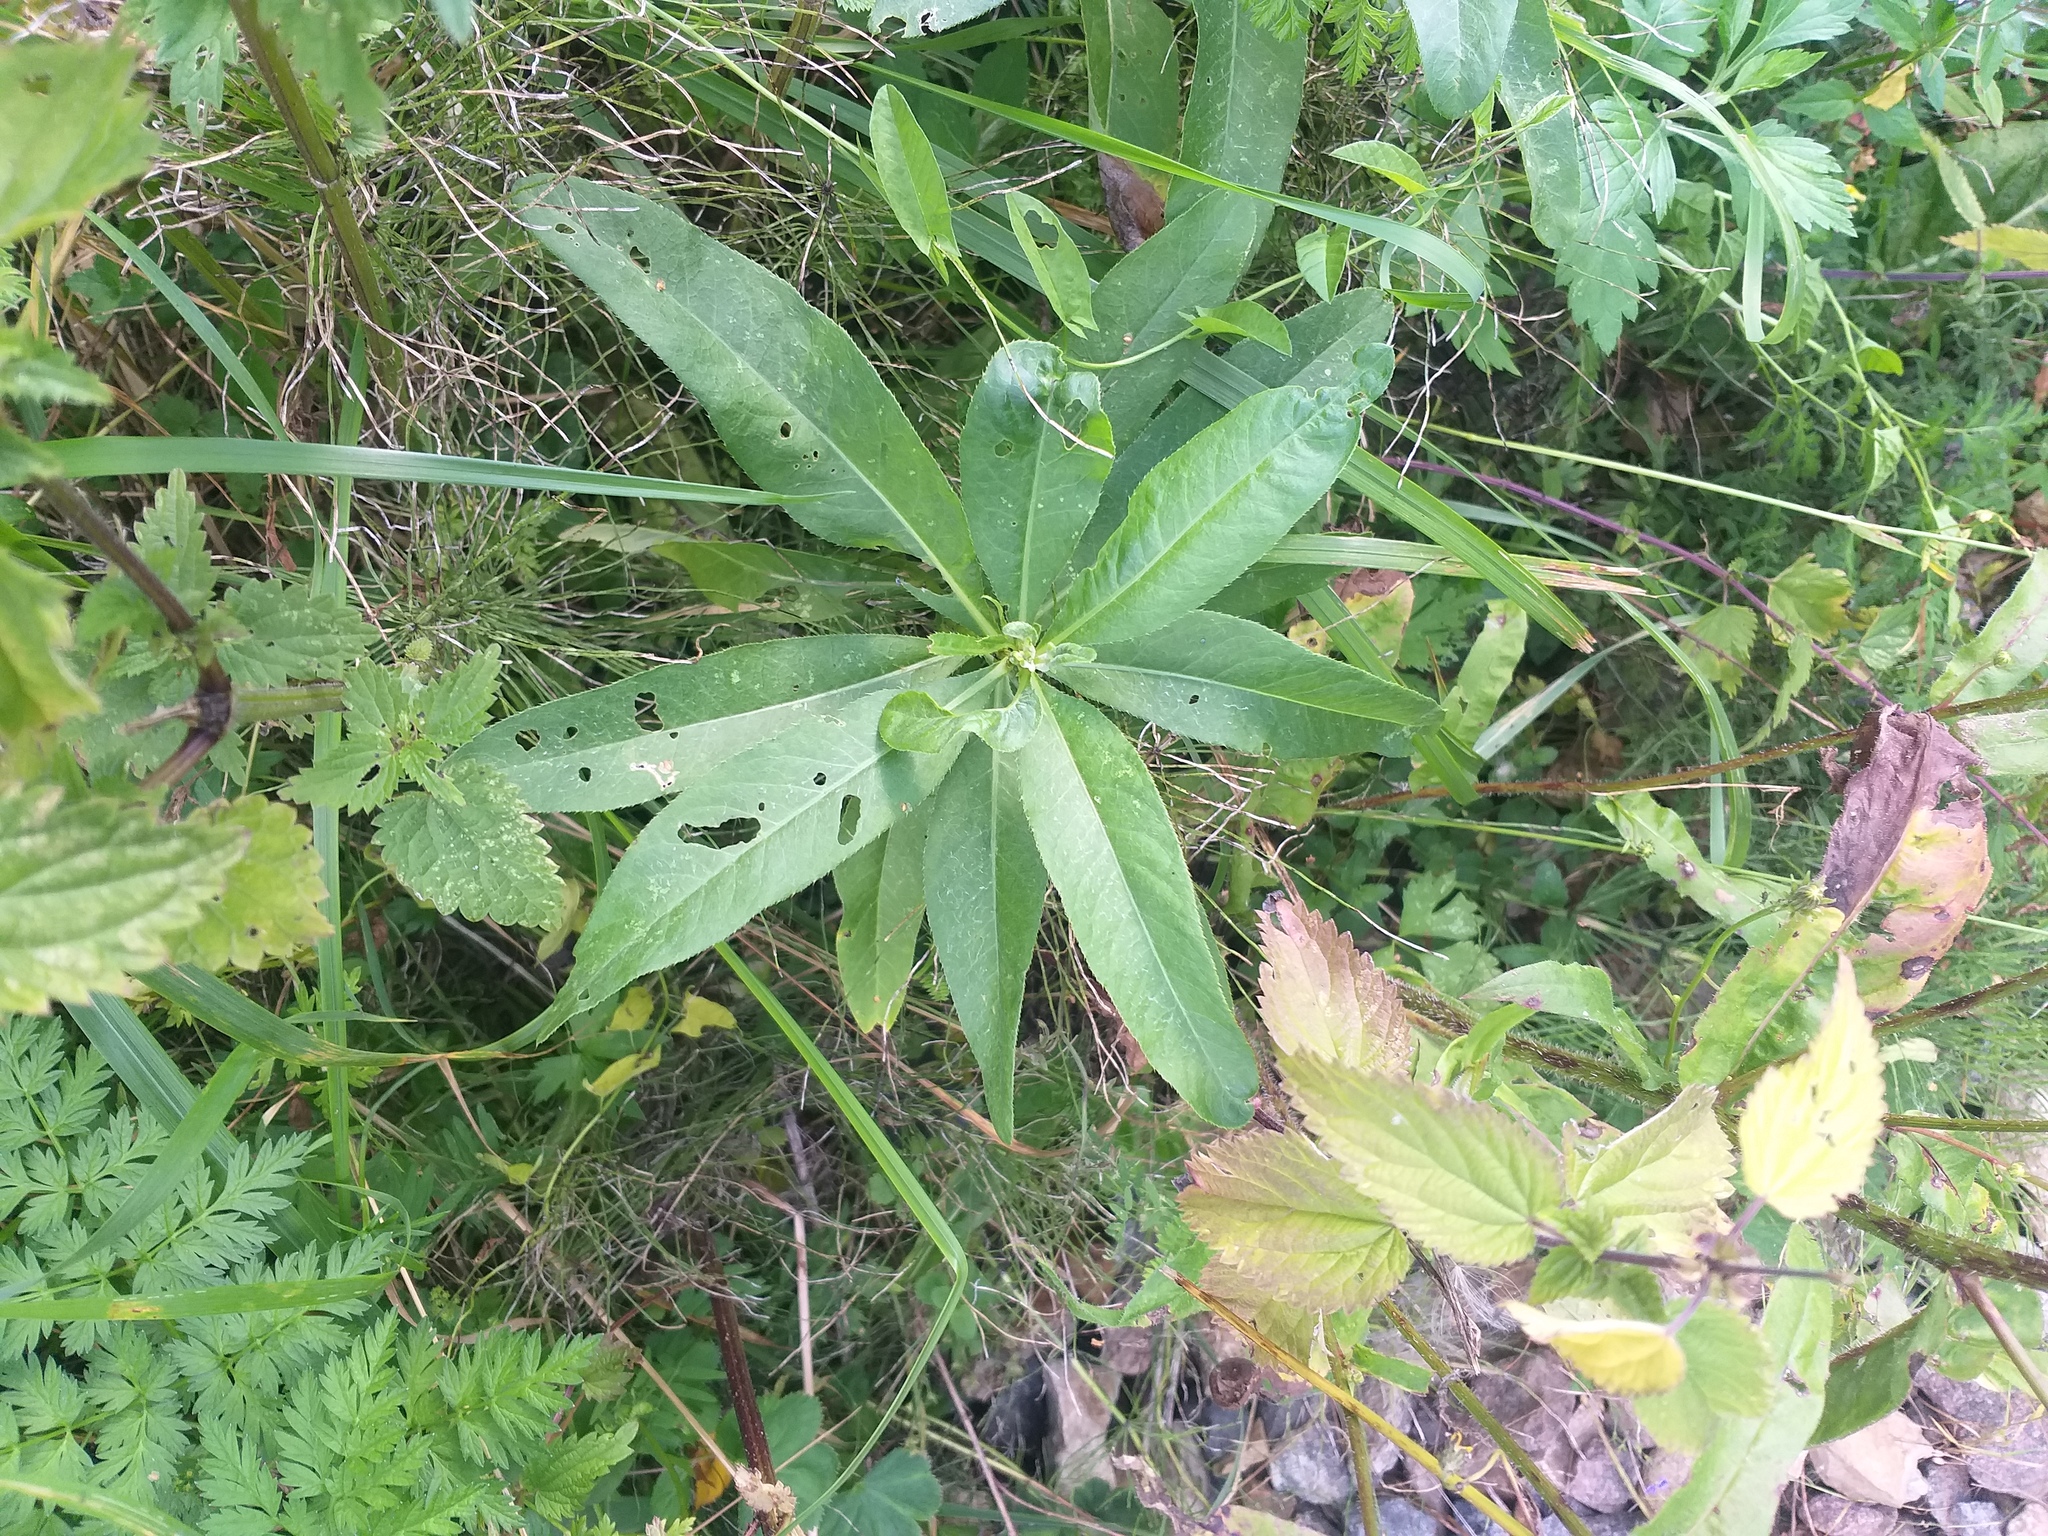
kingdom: Plantae
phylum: Tracheophyta
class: Magnoliopsida
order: Asterales
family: Asteraceae
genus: Cirsium
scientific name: Cirsium arvense
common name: Creeping thistle
